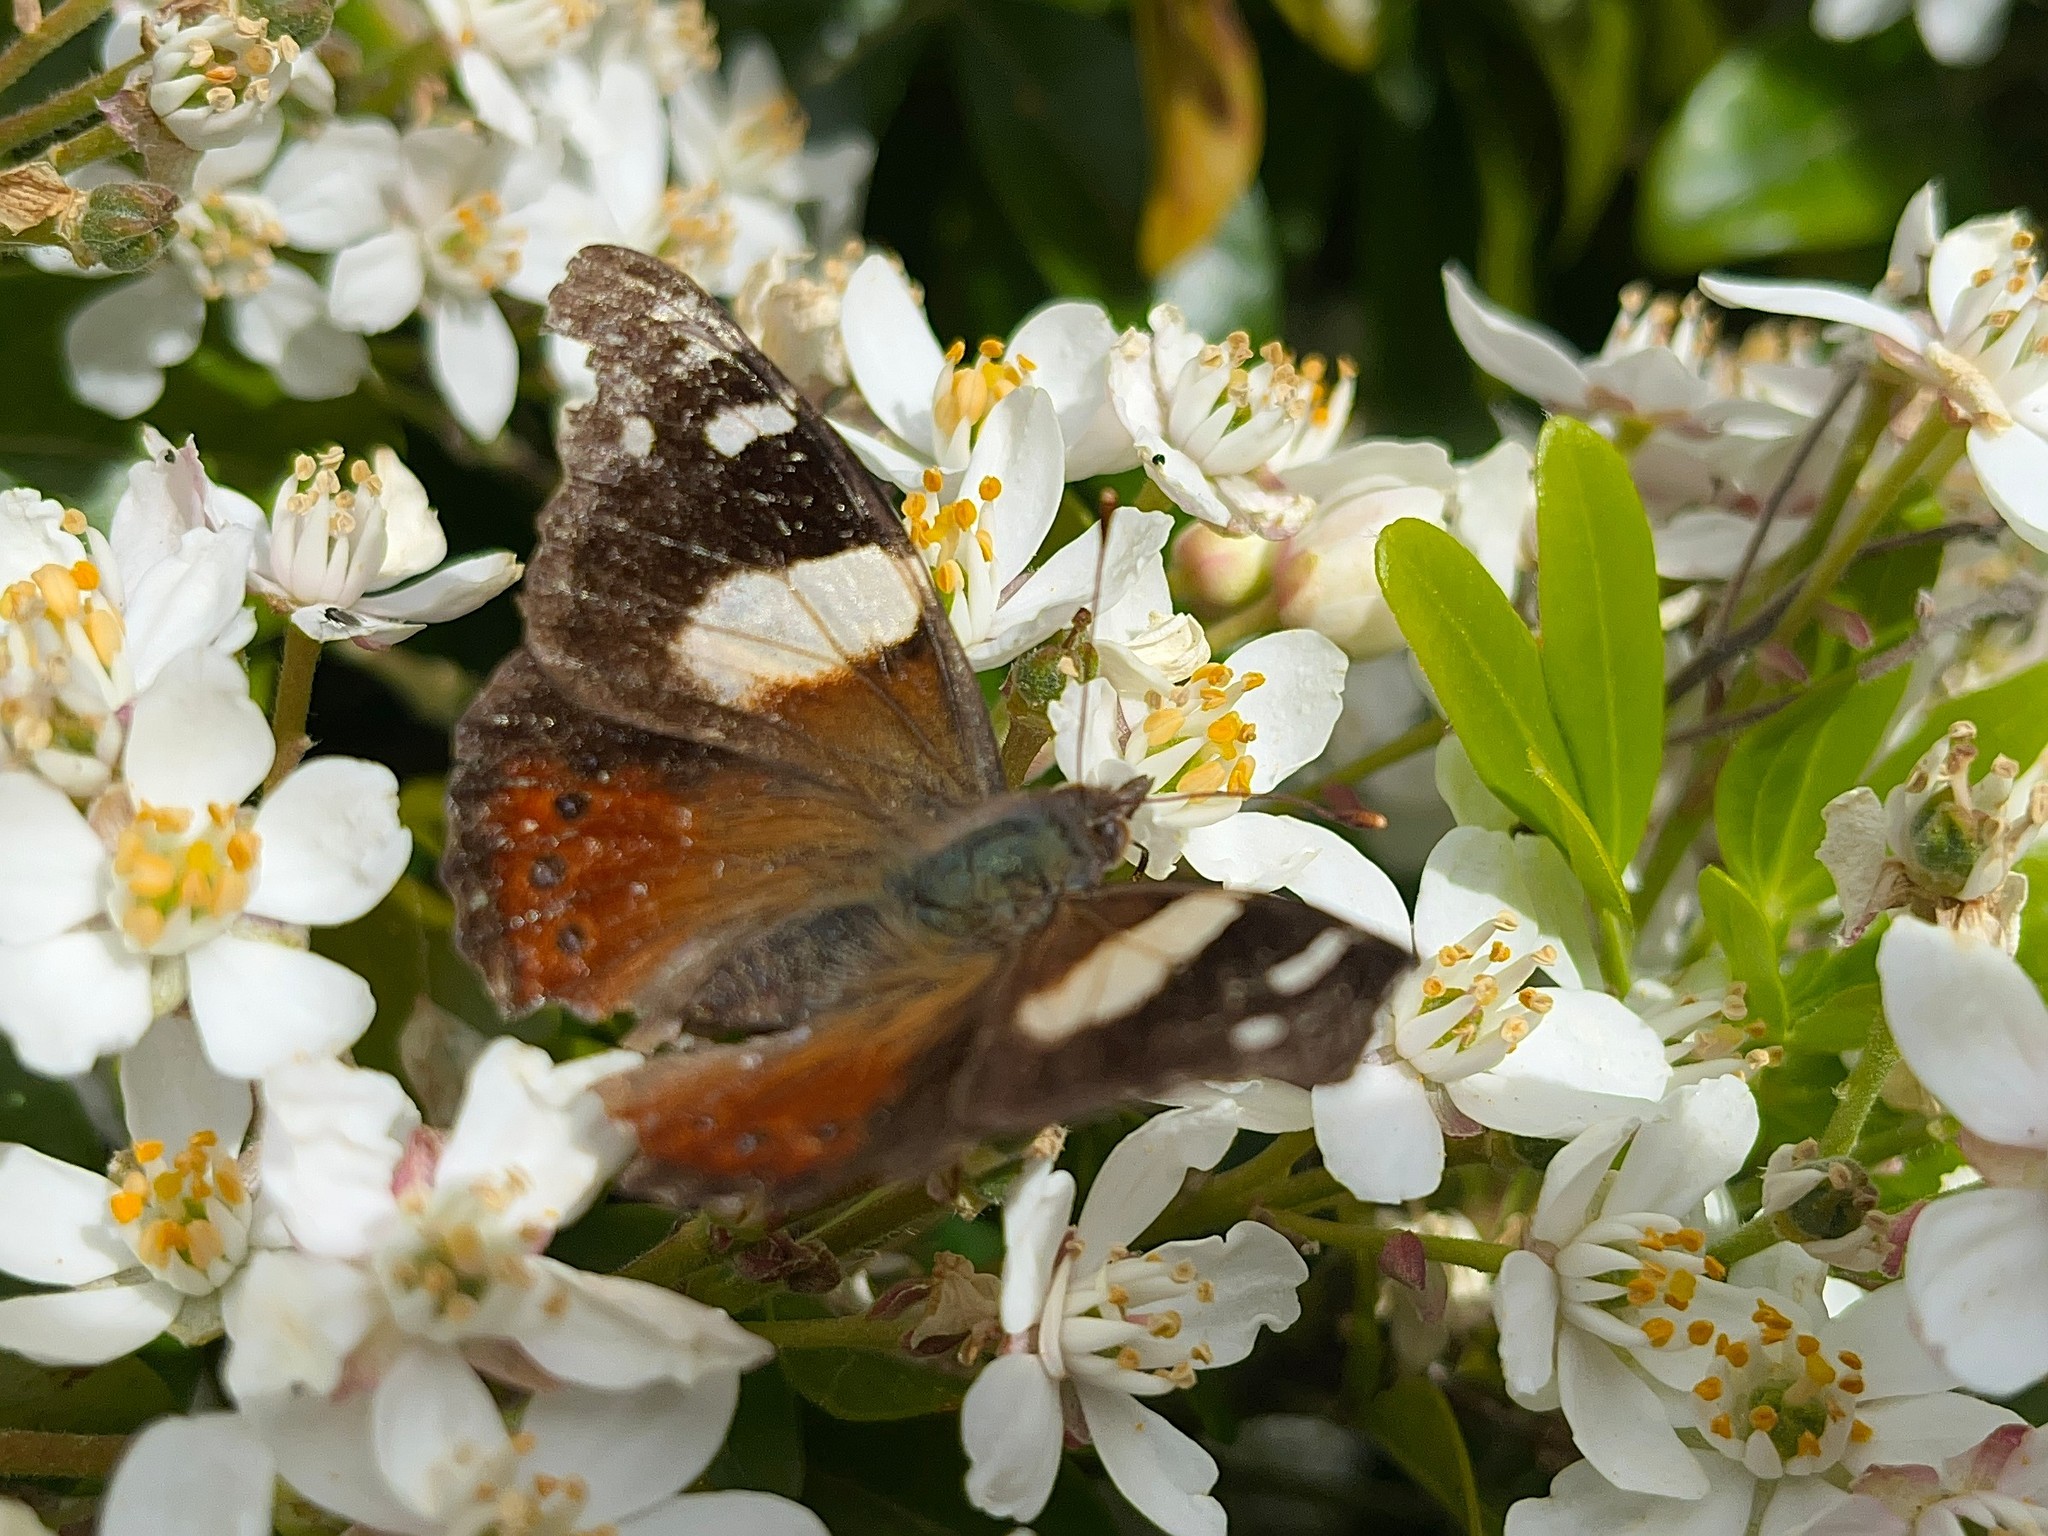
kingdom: Animalia
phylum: Arthropoda
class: Insecta
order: Lepidoptera
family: Nymphalidae
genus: Vanessa
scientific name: Vanessa itea
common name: Yellow admiral
